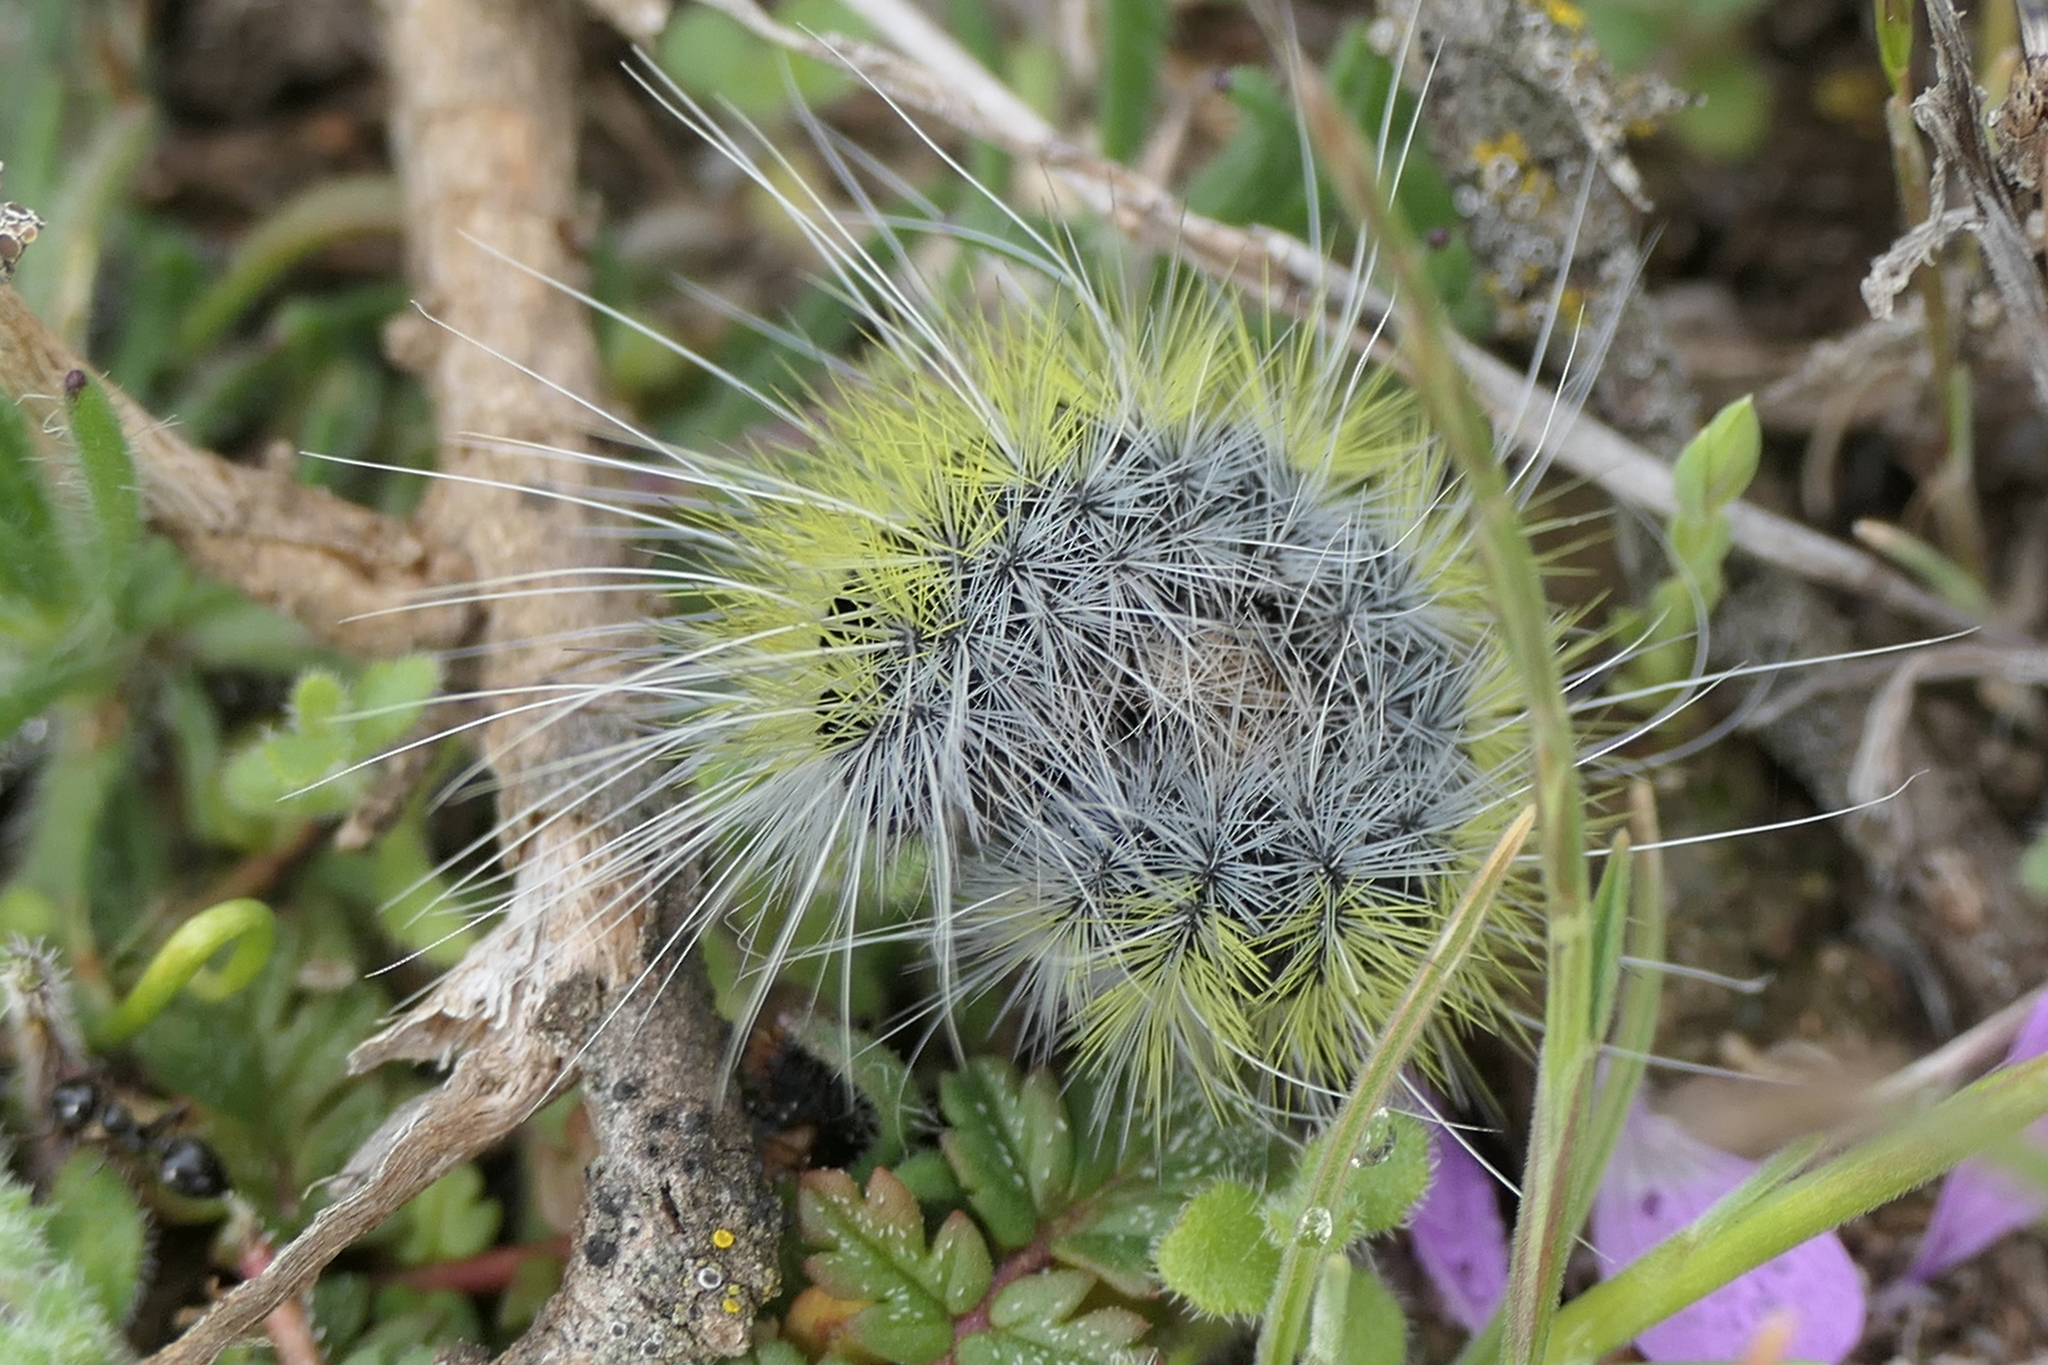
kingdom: Animalia
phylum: Arthropoda
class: Insecta
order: Lepidoptera
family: Notodontidae
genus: Thaumetopoea
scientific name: Thaumetopoea herculeana
